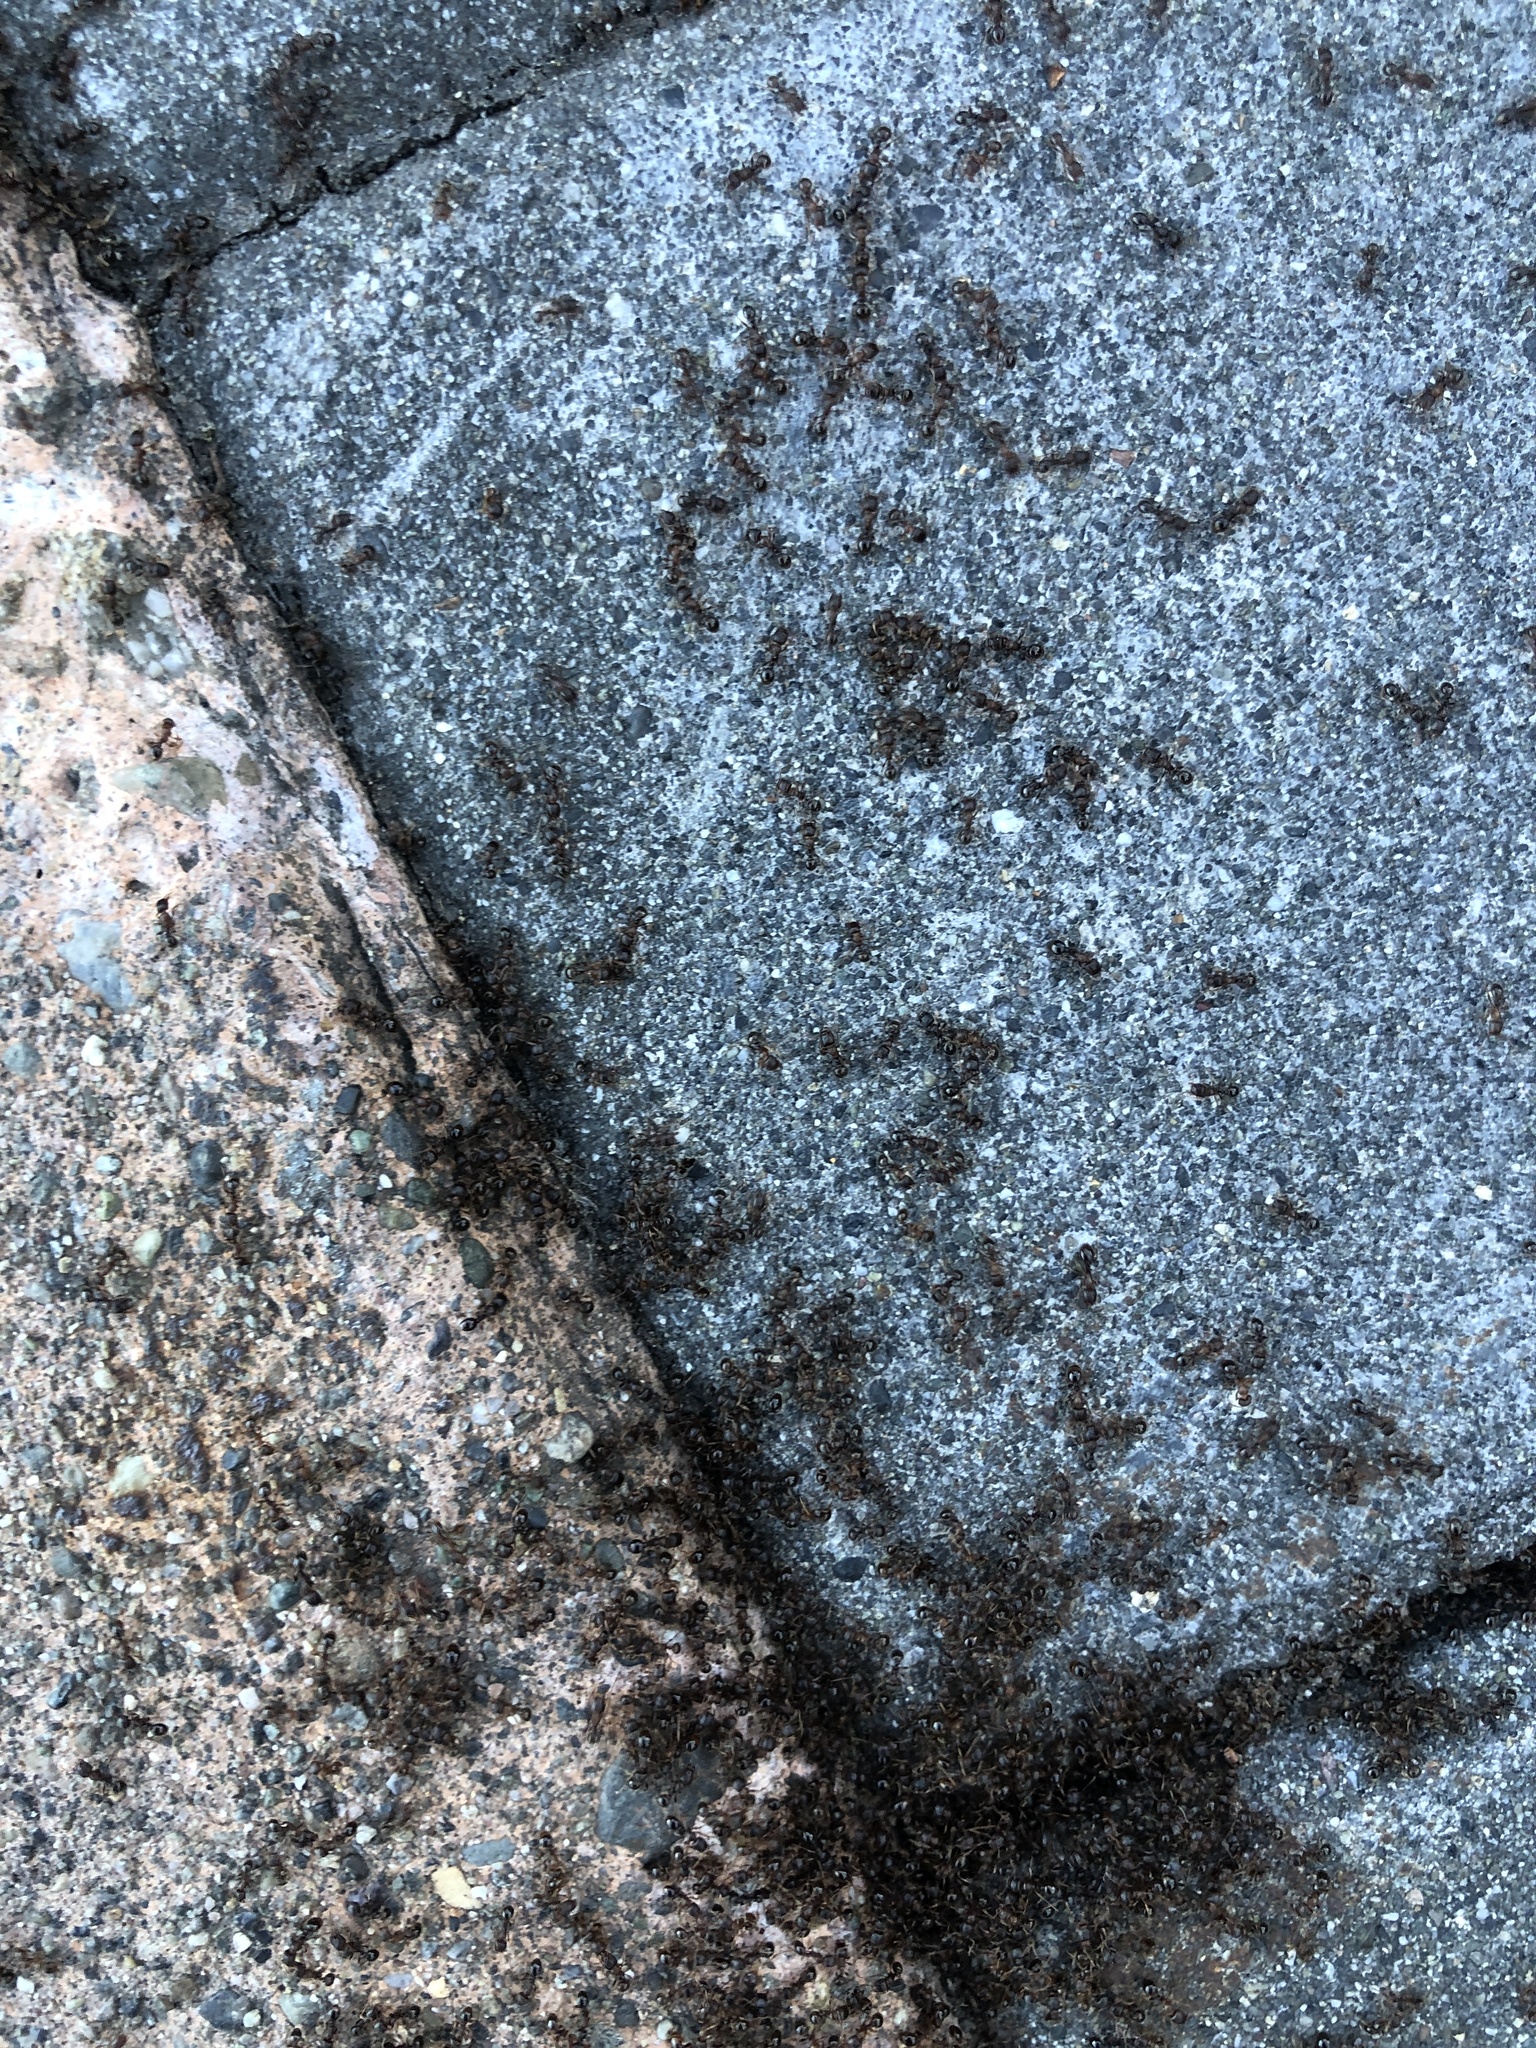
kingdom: Animalia
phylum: Arthropoda
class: Insecta
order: Hymenoptera
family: Formicidae
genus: Tetramorium
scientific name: Tetramorium immigrans
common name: Pavement ant
